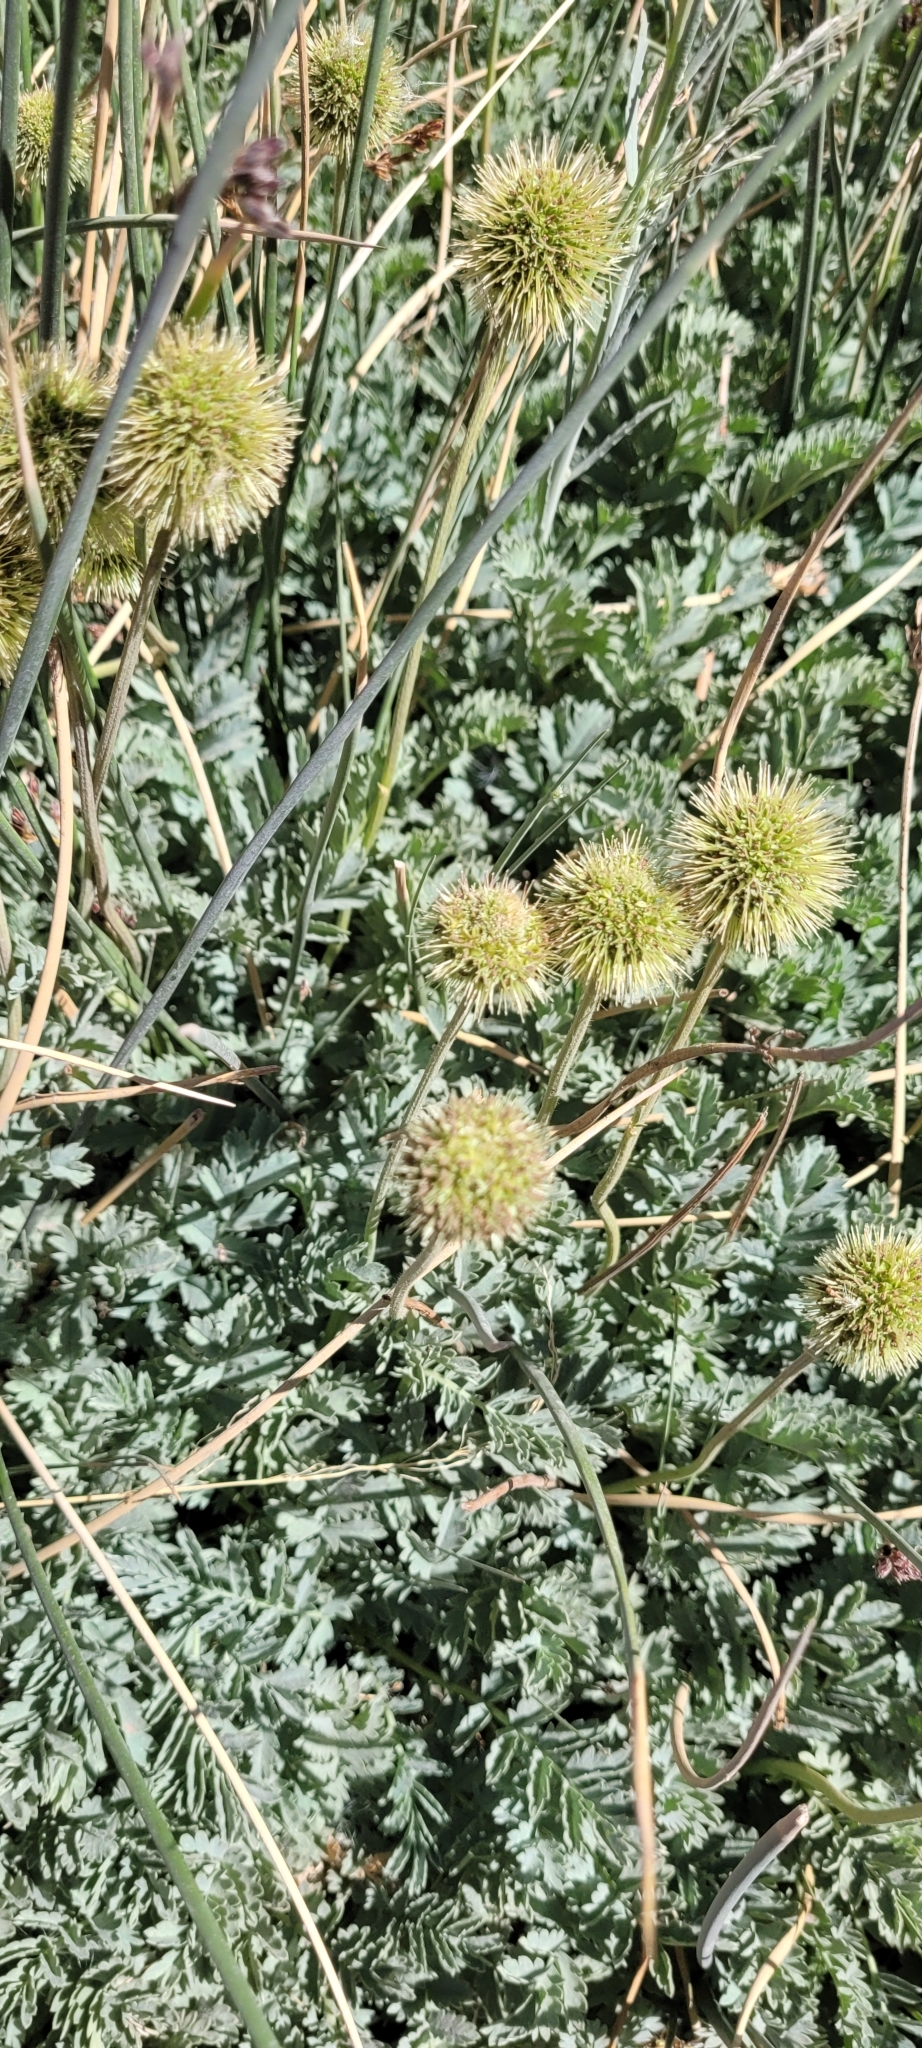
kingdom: Plantae
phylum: Tracheophyta
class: Magnoliopsida
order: Rosales
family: Rosaceae
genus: Acaena
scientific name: Acaena magellanica
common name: New zealand burr
